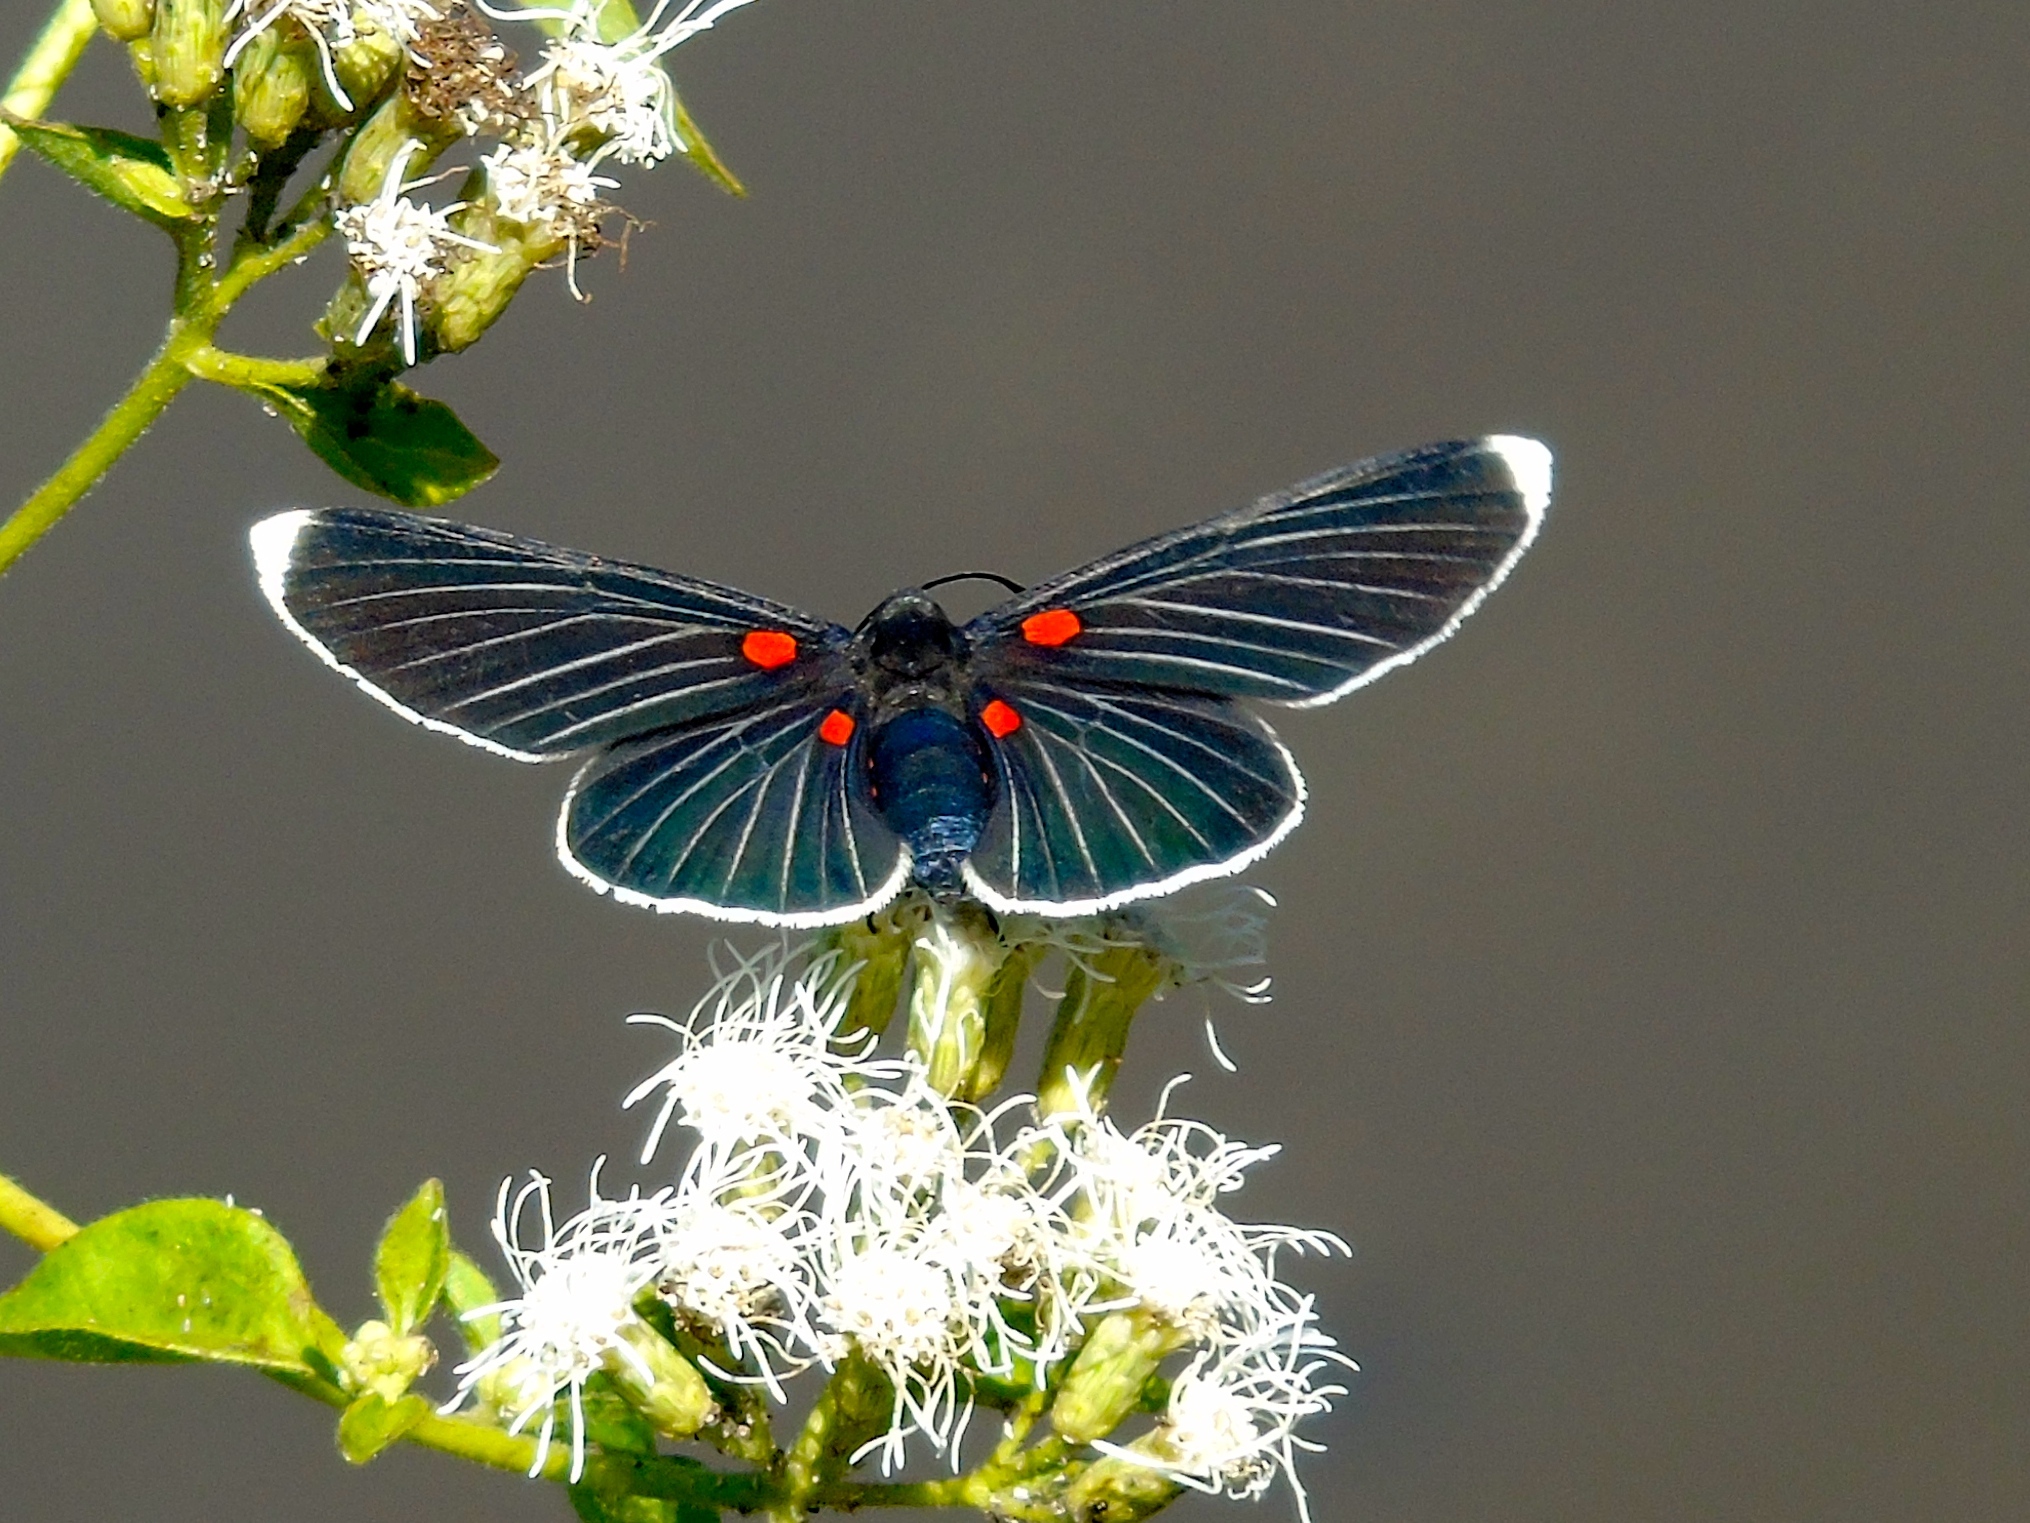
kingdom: Animalia
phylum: Arthropoda
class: Insecta
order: Lepidoptera
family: Lycaenidae
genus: Melanis
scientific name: Melanis
